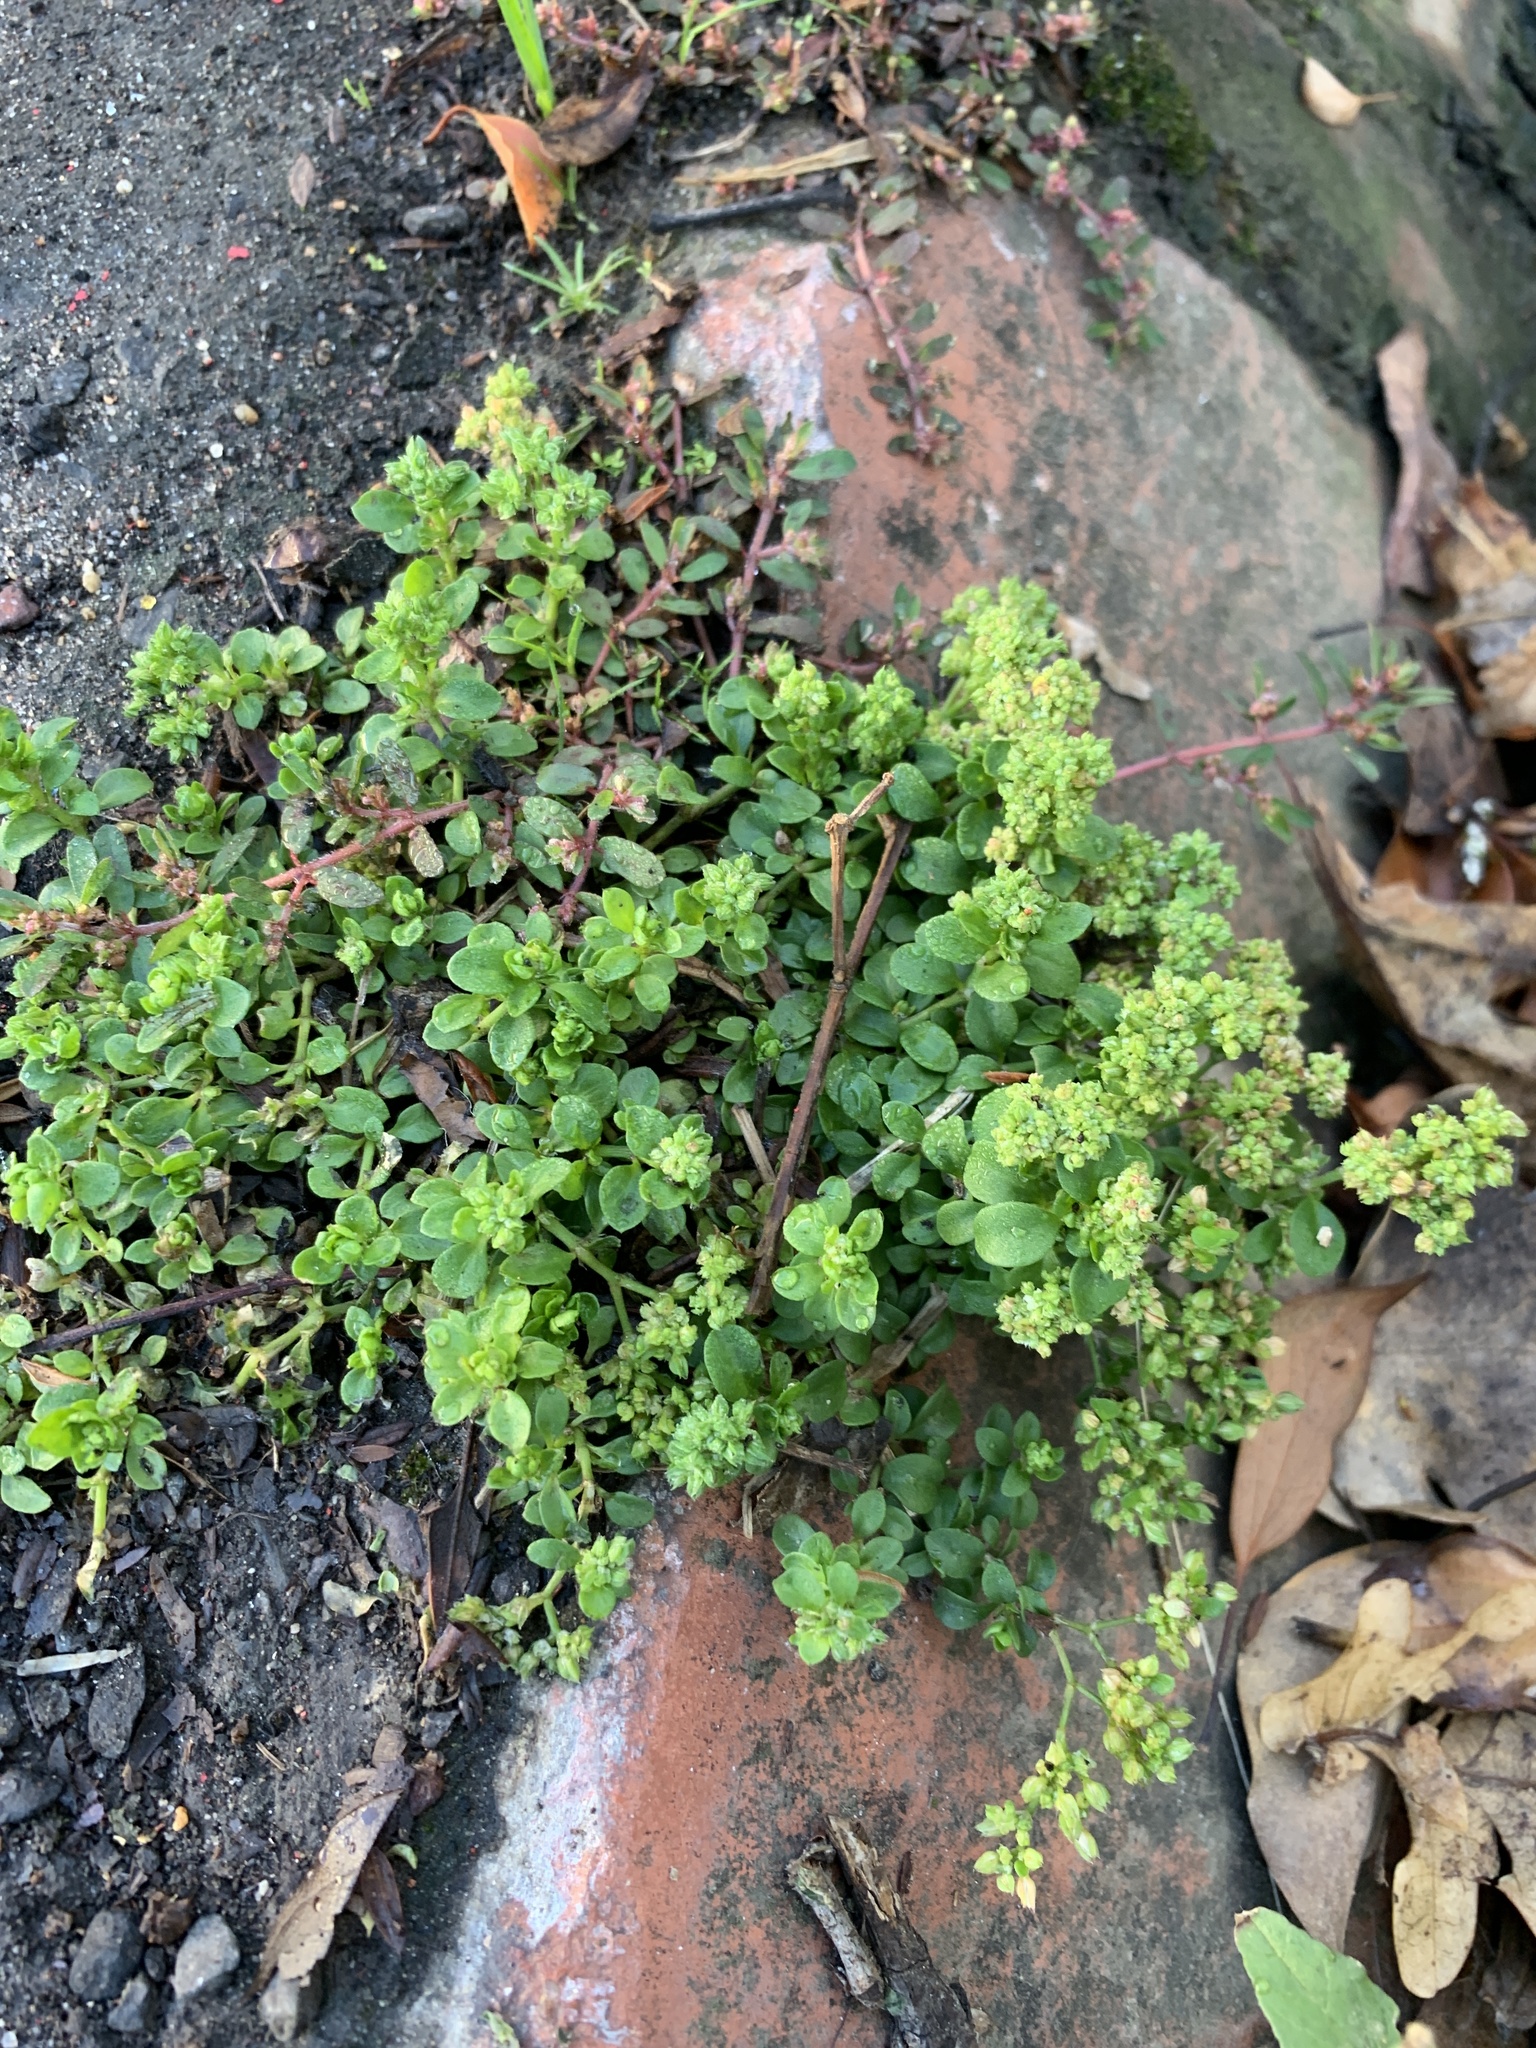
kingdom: Plantae
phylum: Tracheophyta
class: Magnoliopsida
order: Caryophyllales
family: Caryophyllaceae
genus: Polycarpon
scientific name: Polycarpon tetraphyllum
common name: Four-leaved all-seed
